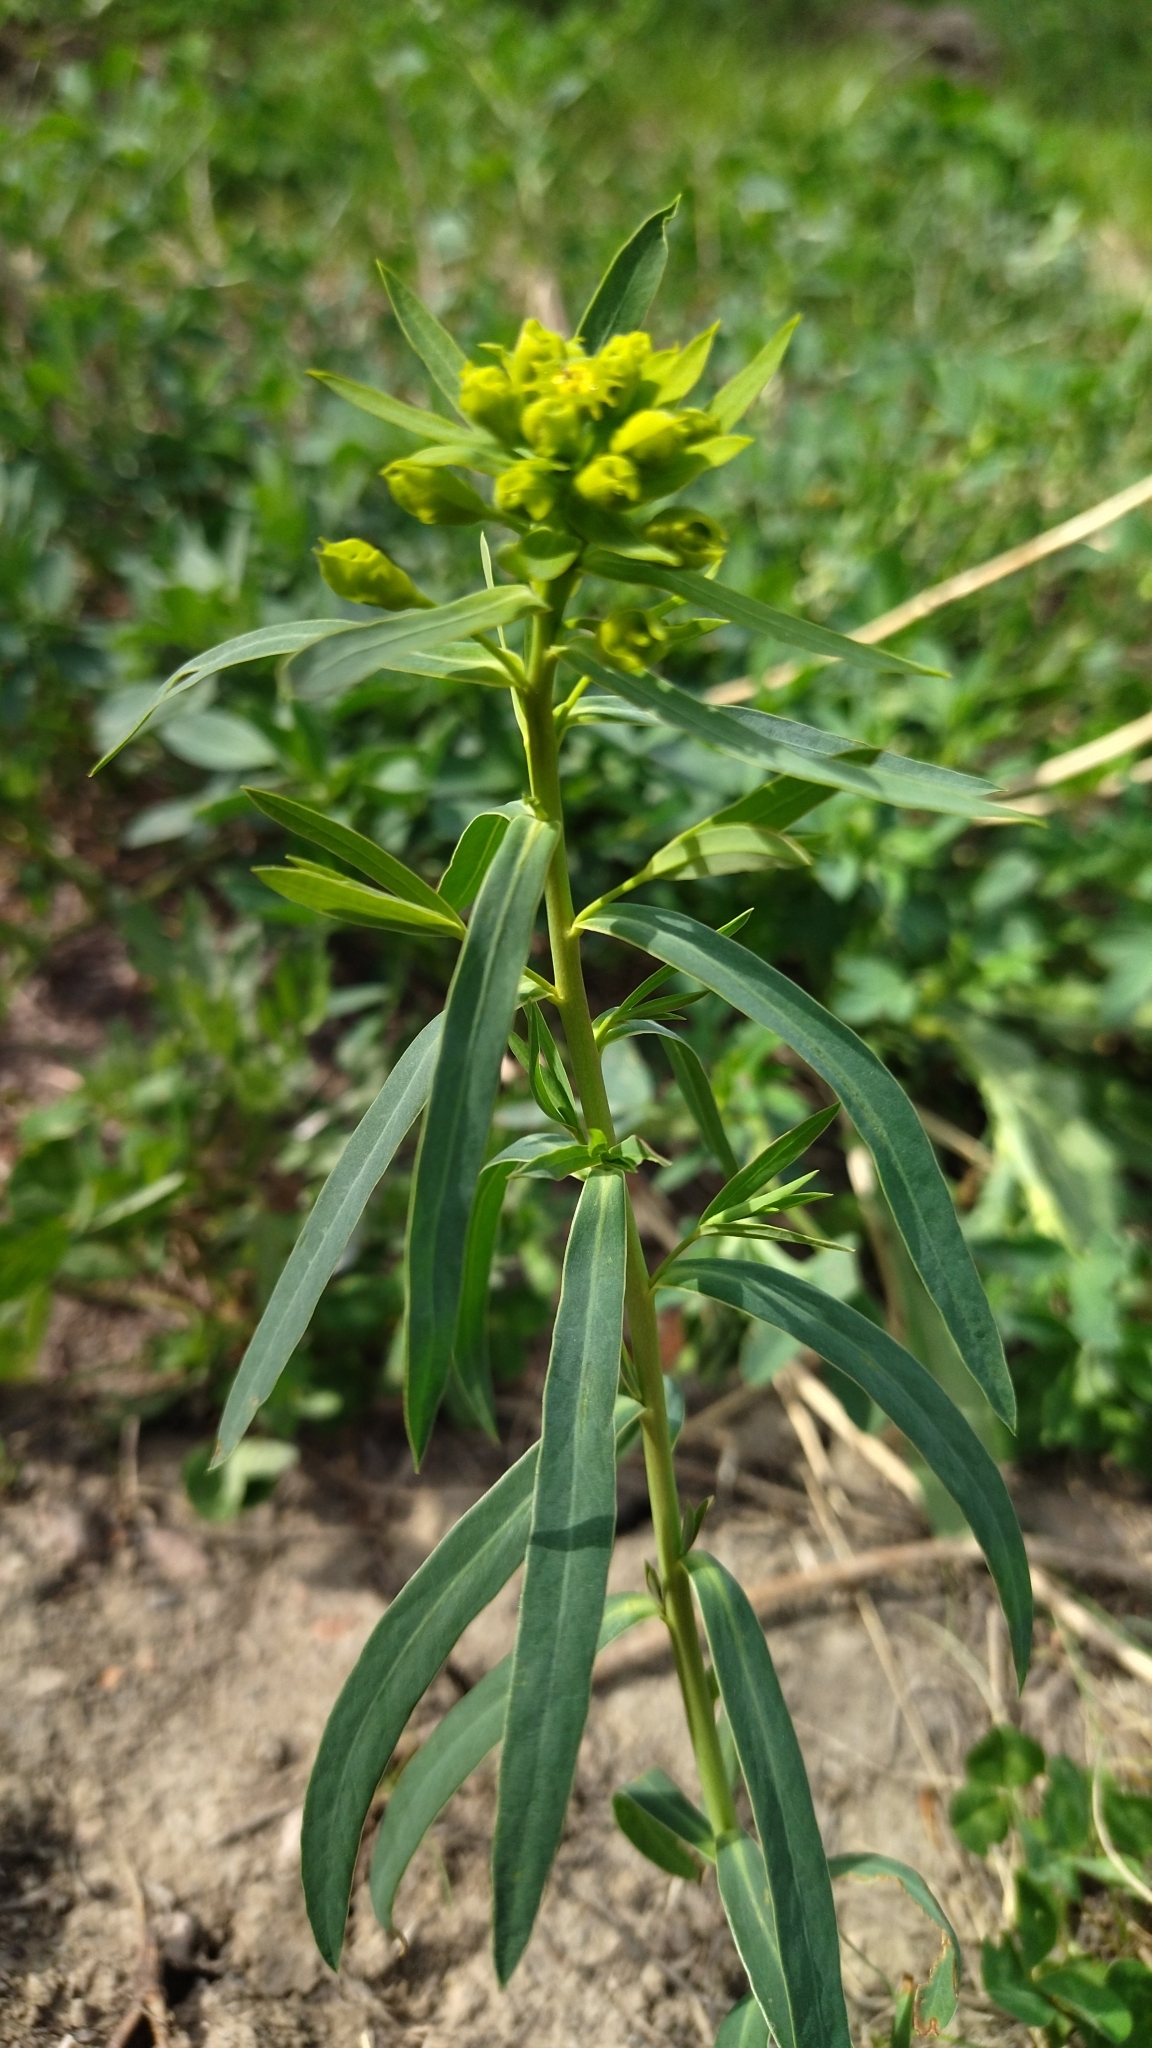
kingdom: Plantae
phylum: Tracheophyta
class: Magnoliopsida
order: Malpighiales
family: Euphorbiaceae
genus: Euphorbia
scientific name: Euphorbia virgata
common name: Leafy spurge
